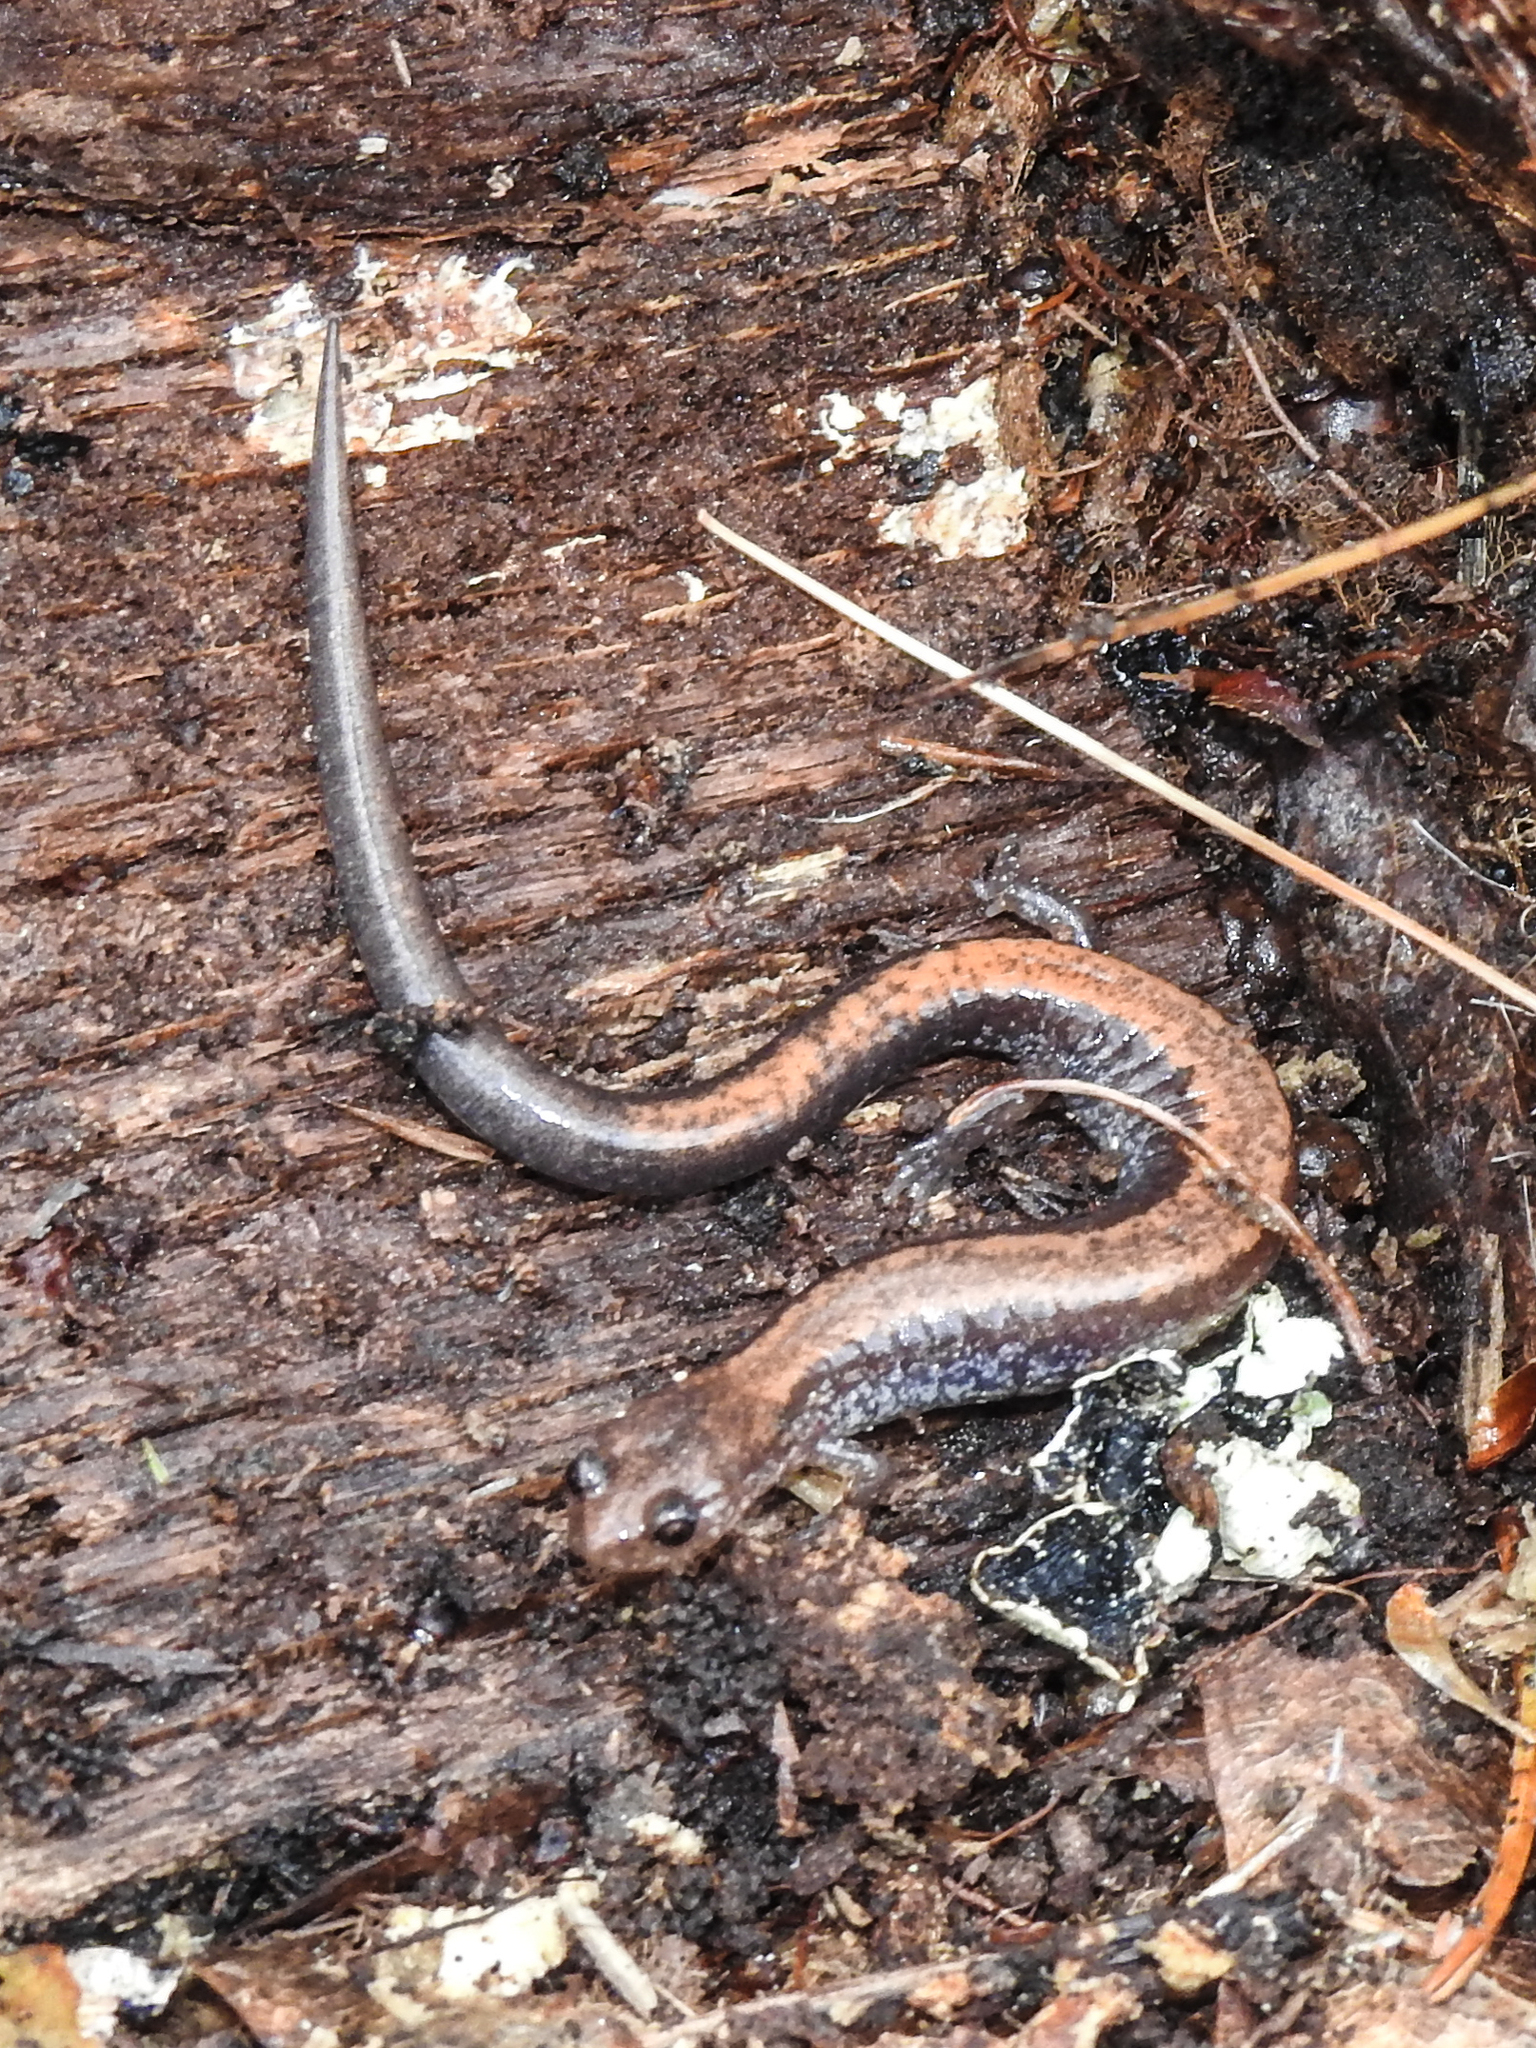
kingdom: Animalia
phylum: Chordata
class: Amphibia
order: Caudata
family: Plethodontidae
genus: Plethodon
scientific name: Plethodon cinereus
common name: Redback salamander
